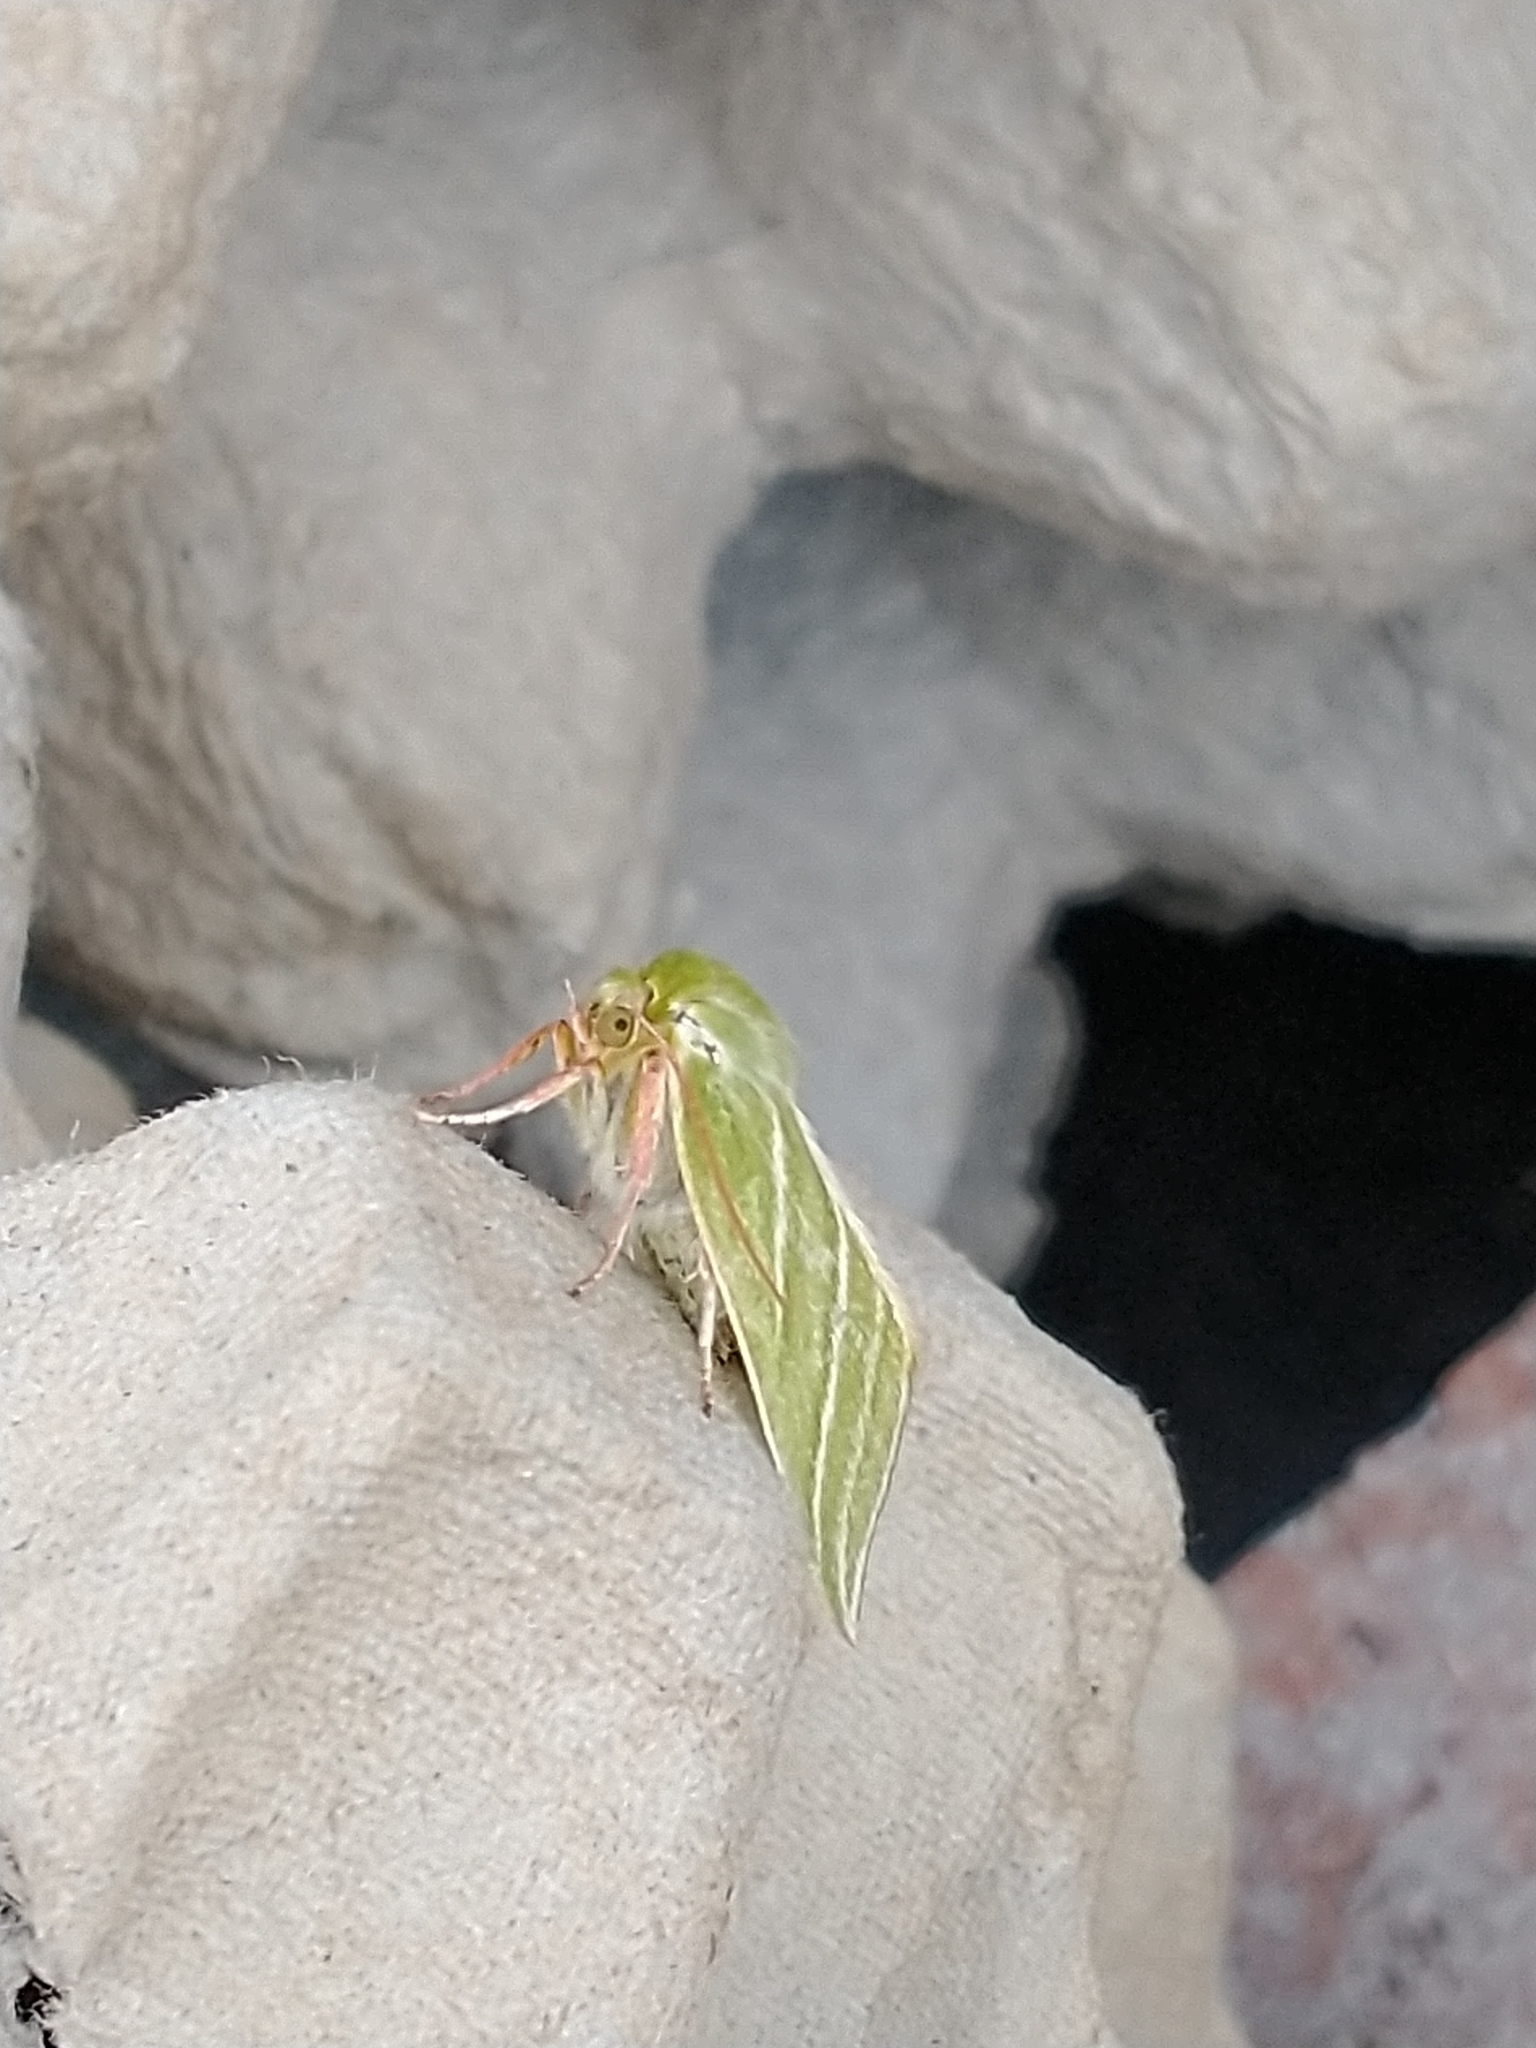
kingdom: Animalia
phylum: Arthropoda
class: Insecta
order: Lepidoptera
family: Nolidae
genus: Pseudoips
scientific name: Pseudoips prasinana
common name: Green silver-lines
